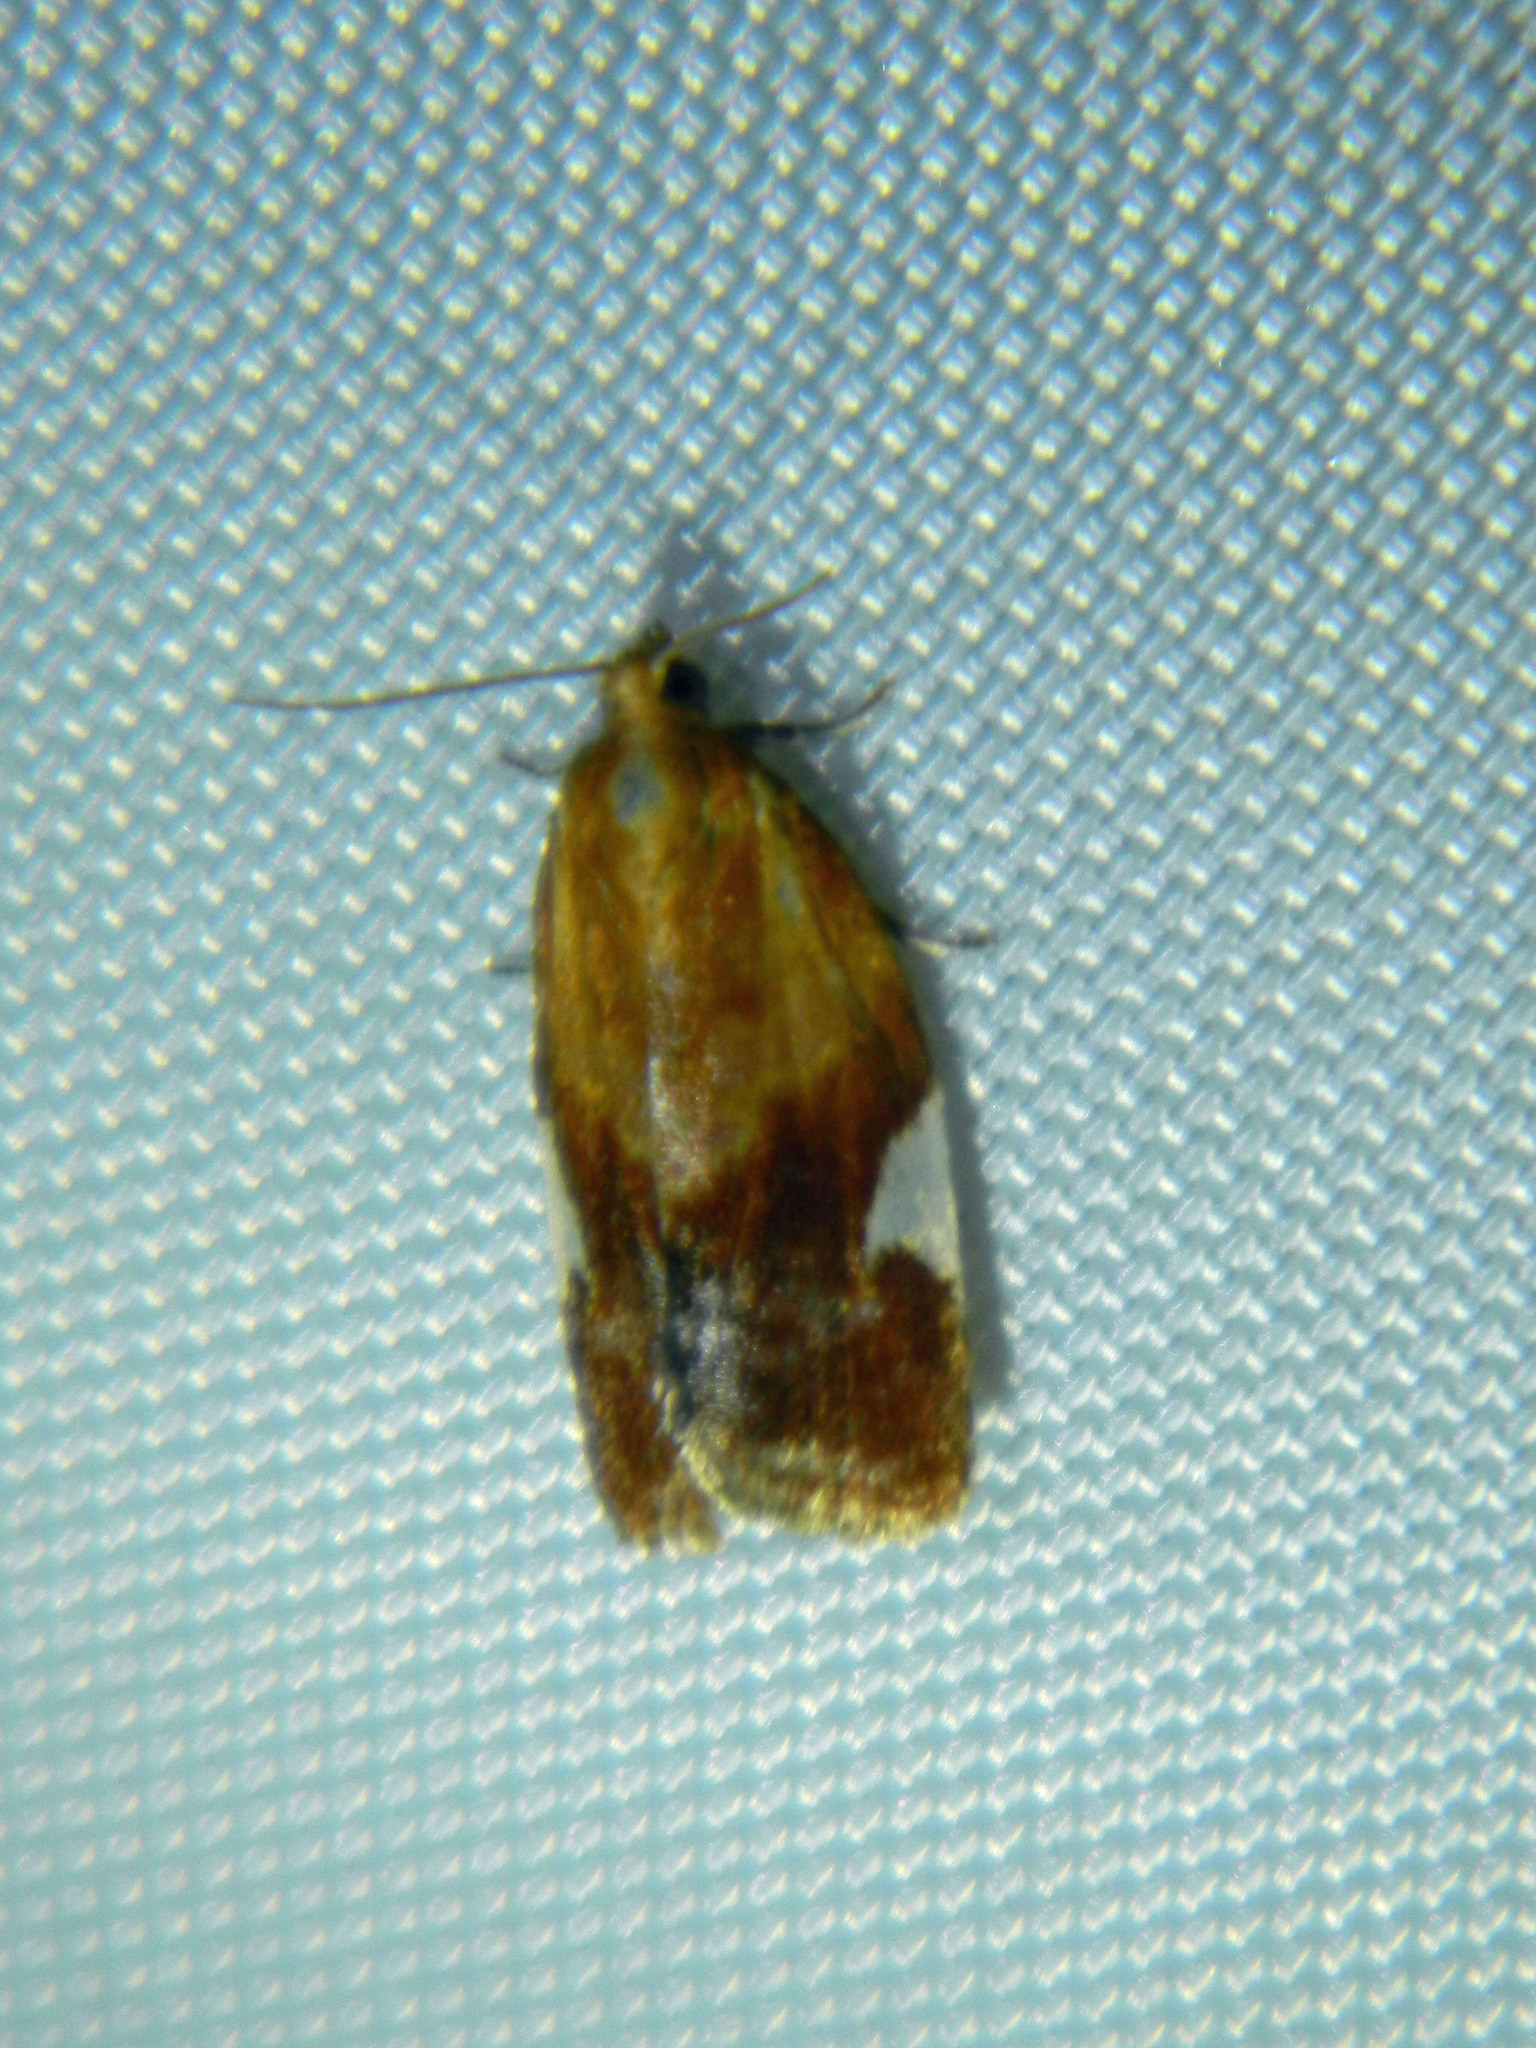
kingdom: Animalia
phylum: Arthropoda
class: Insecta
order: Lepidoptera
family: Tortricidae
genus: Clepsis
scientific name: Clepsis persicana
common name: White triangle tortrix
